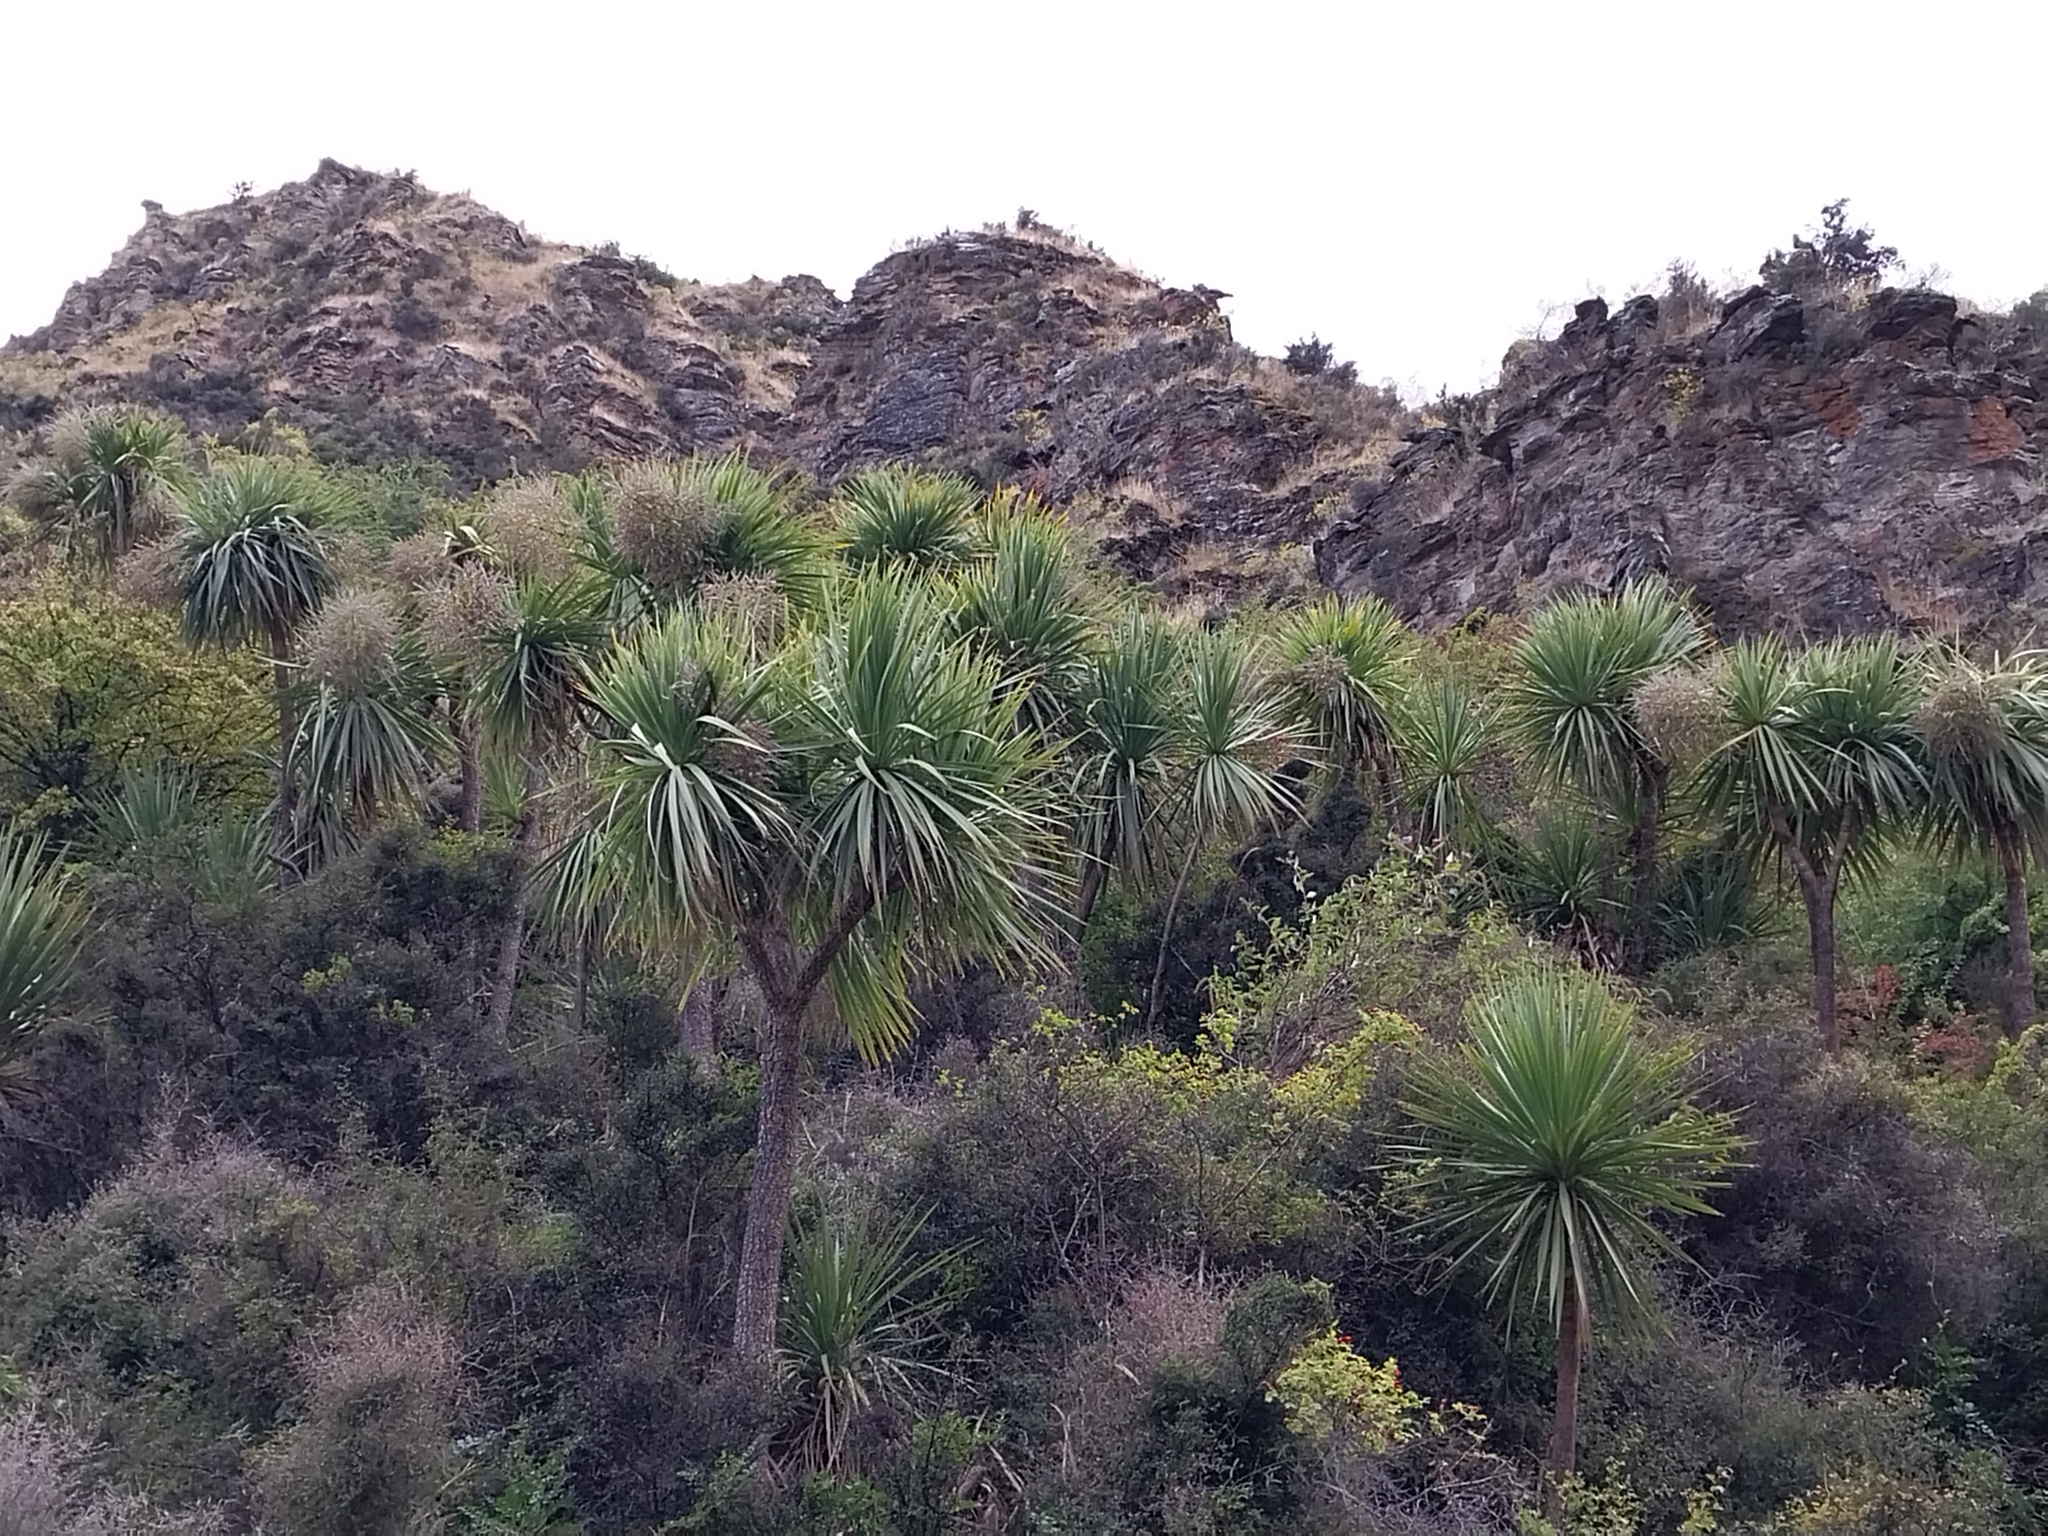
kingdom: Plantae
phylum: Tracheophyta
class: Liliopsida
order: Asparagales
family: Asparagaceae
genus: Cordyline
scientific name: Cordyline australis
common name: Cabbage-palm
